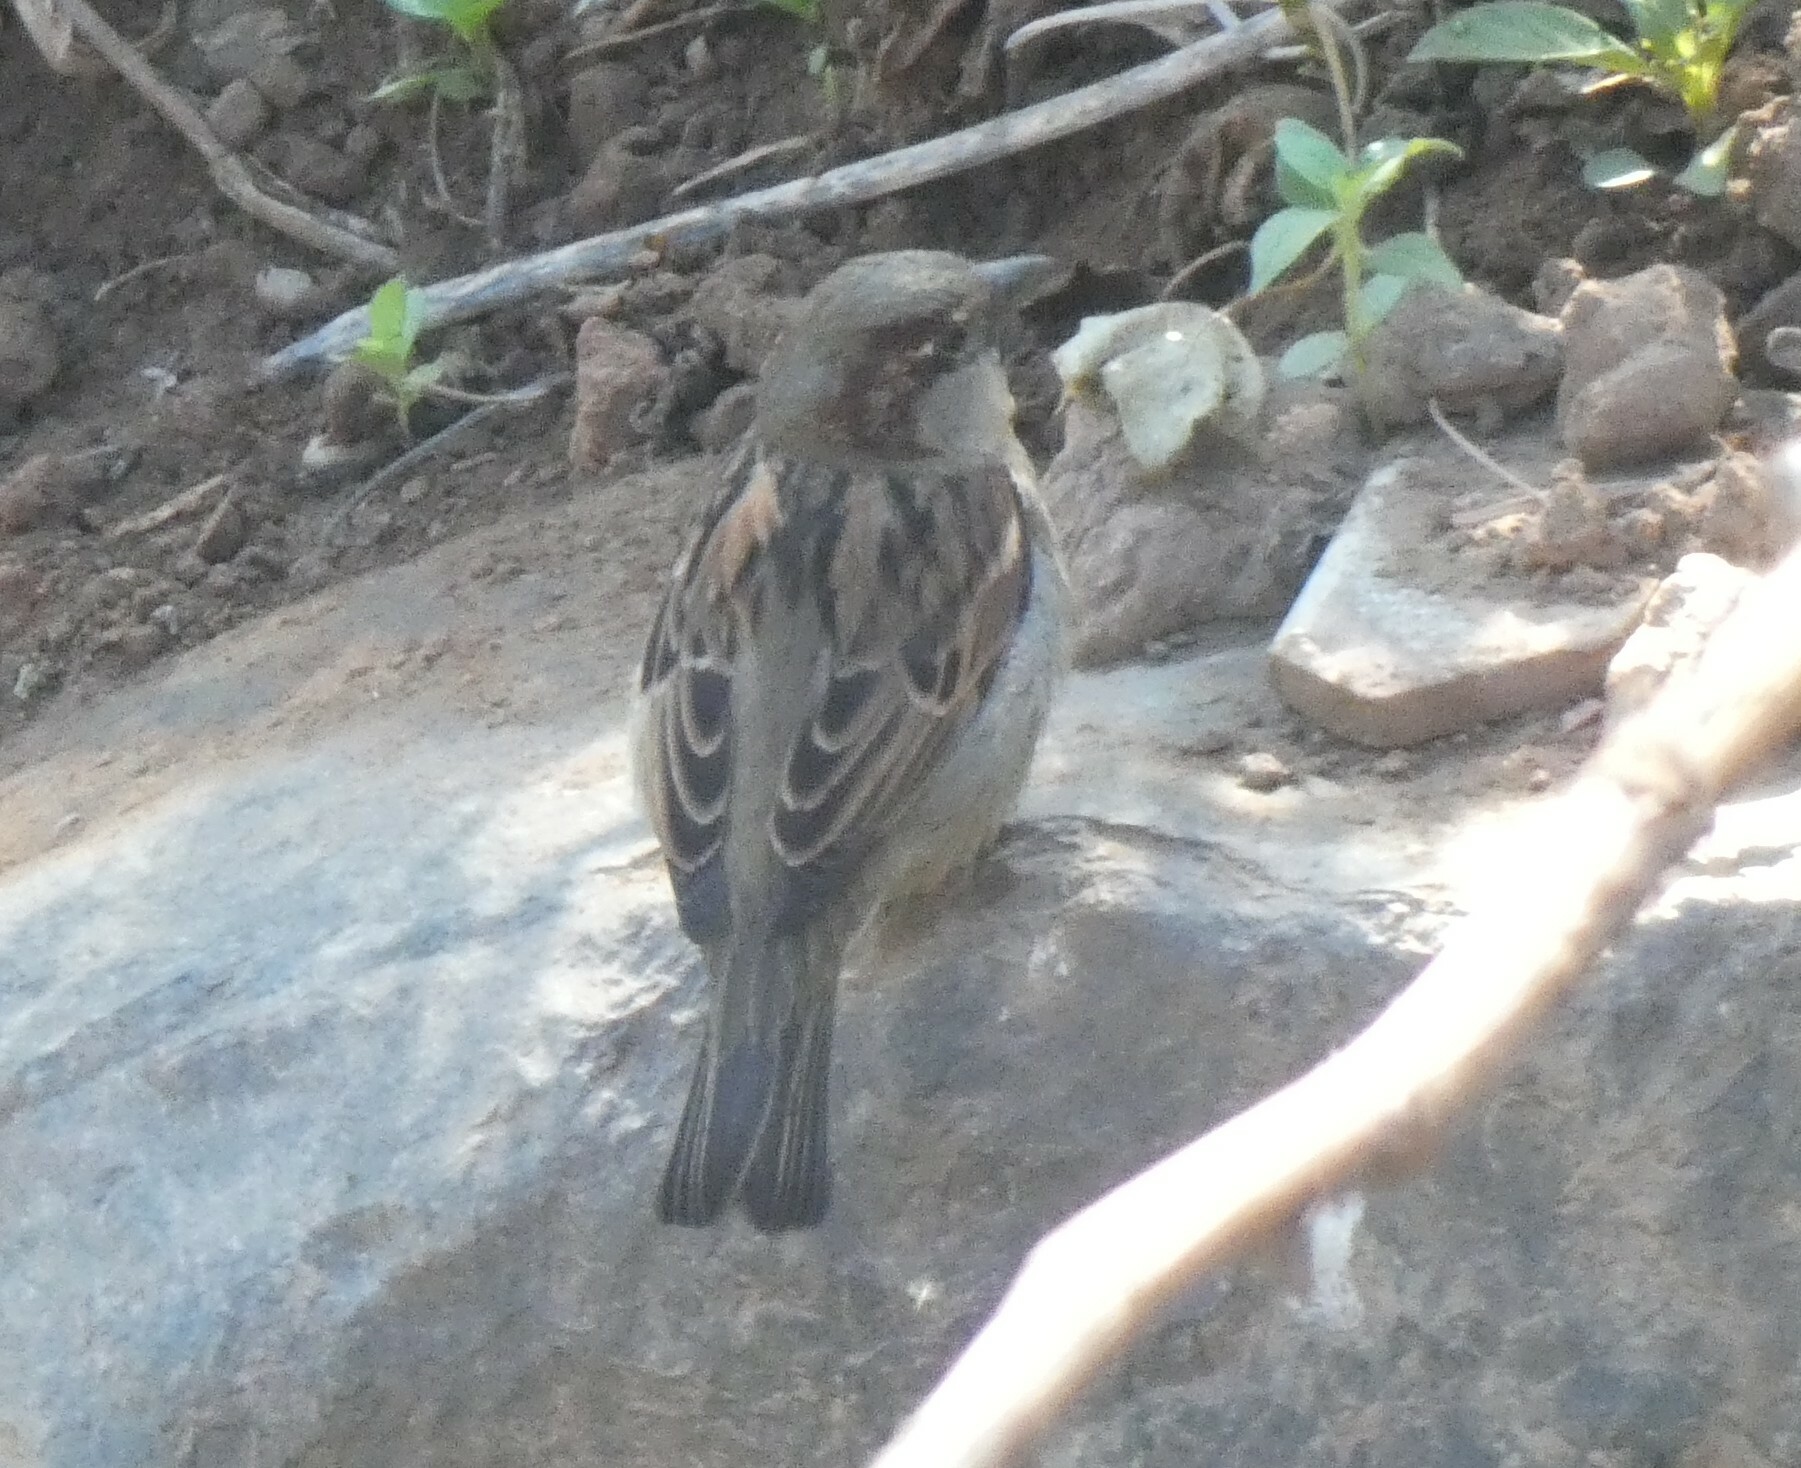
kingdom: Animalia
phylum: Chordata
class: Aves
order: Passeriformes
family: Passeridae
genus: Passer
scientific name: Passer domesticus
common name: House sparrow
